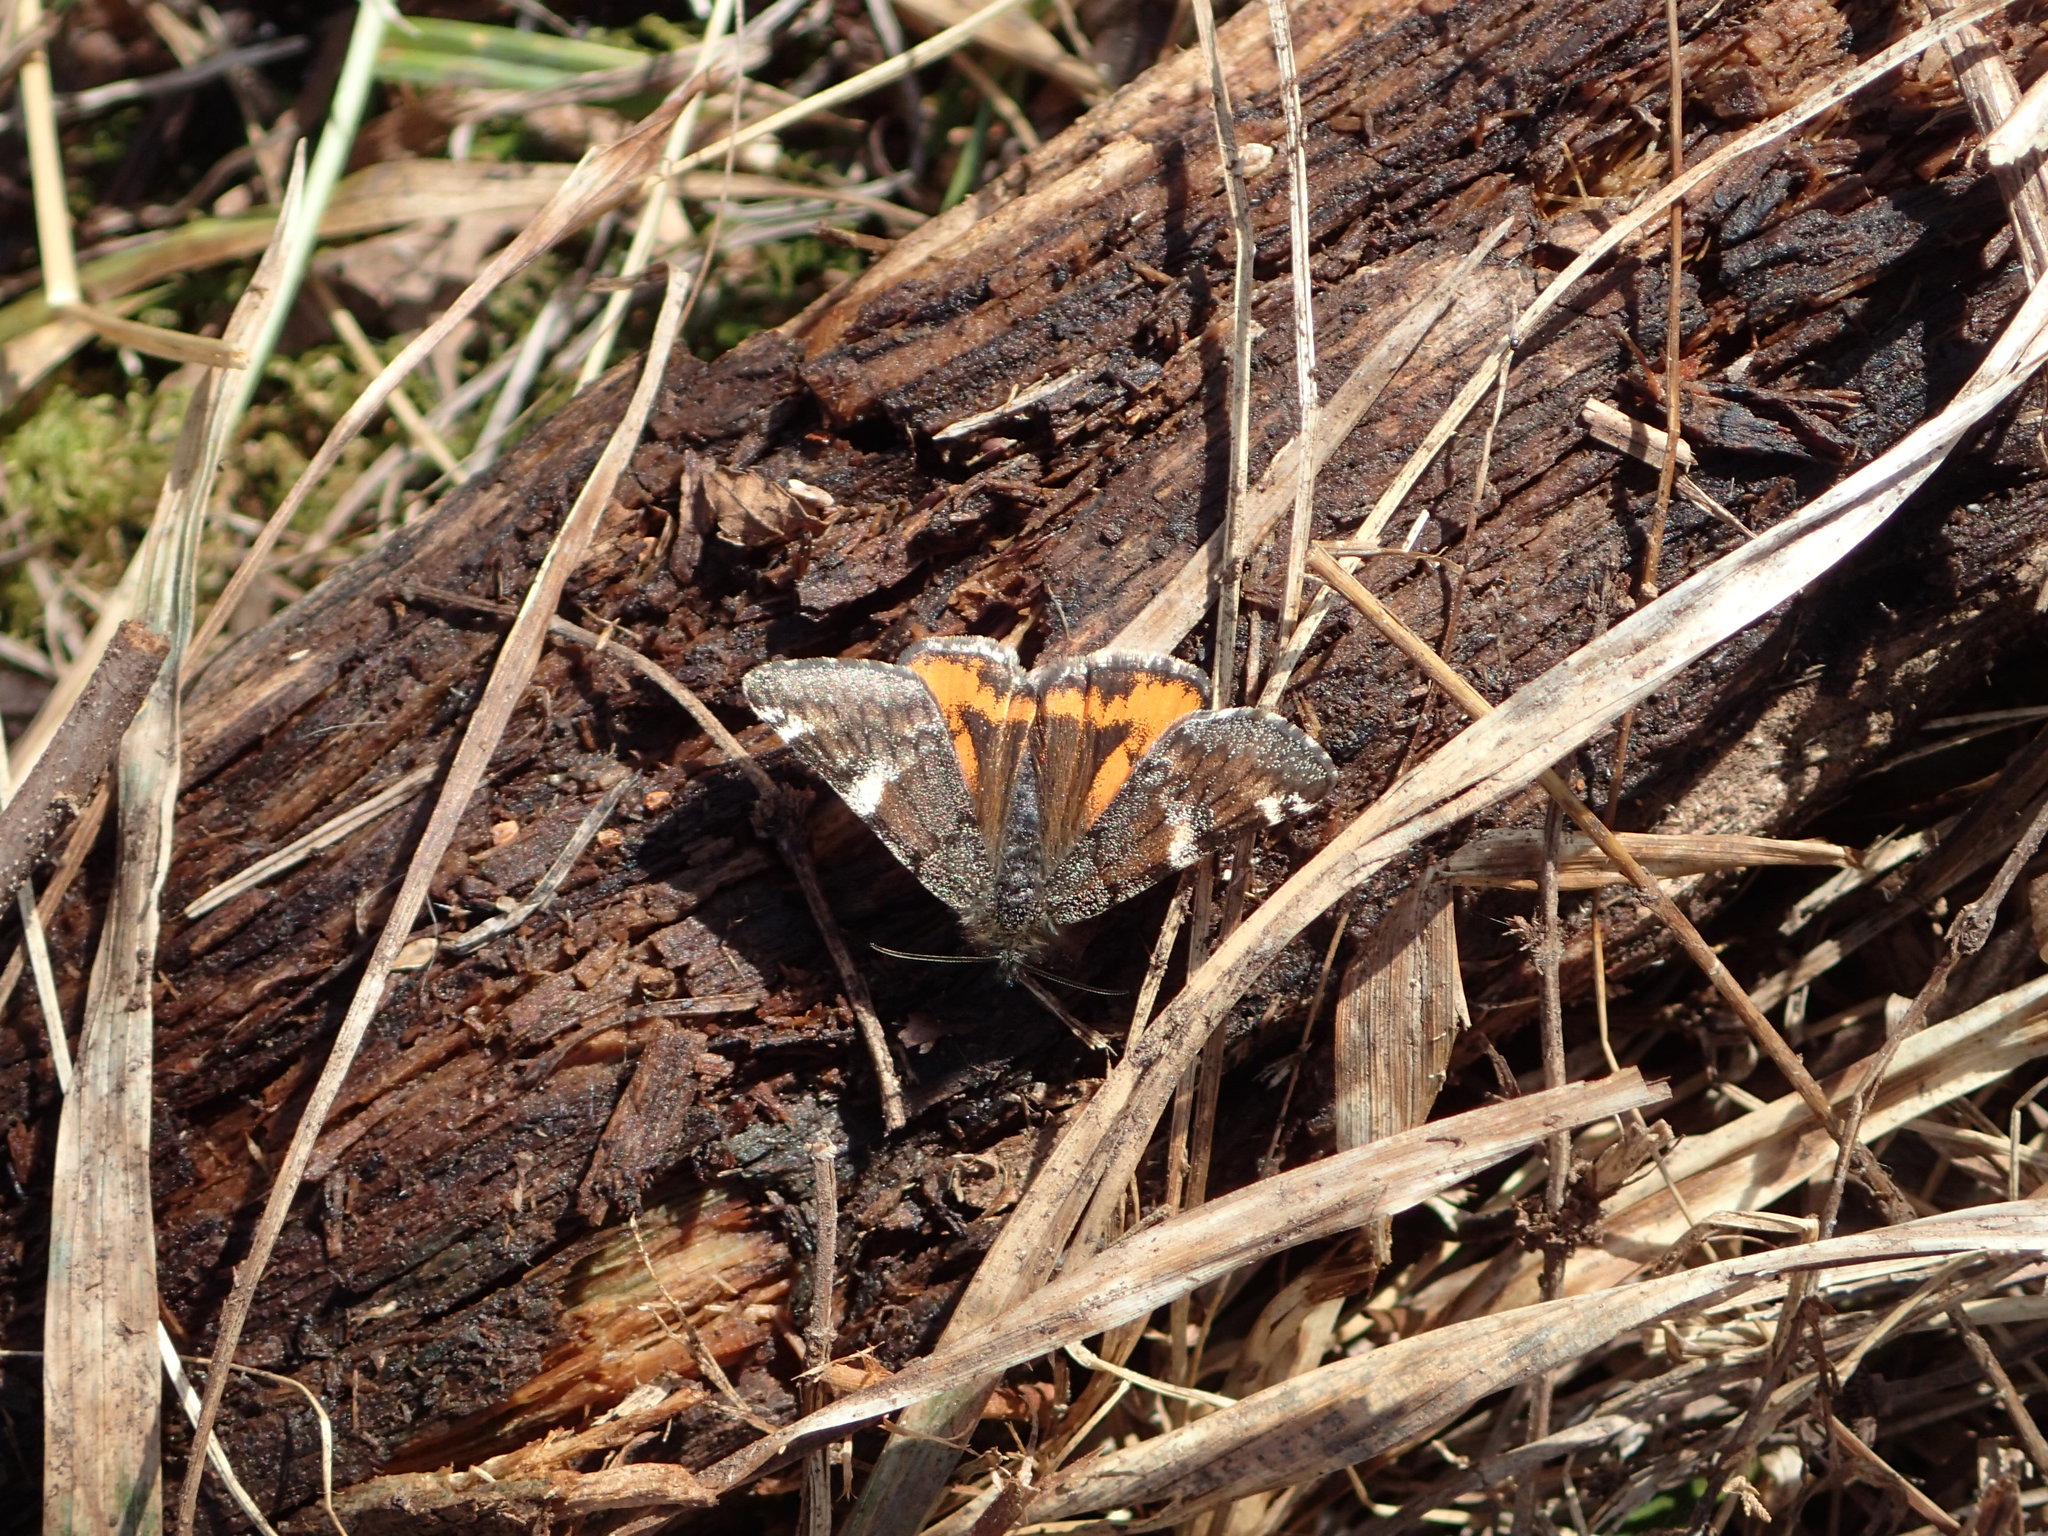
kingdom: Animalia
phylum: Arthropoda
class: Insecta
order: Lepidoptera
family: Geometridae
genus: Archiearis
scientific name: Archiearis infans
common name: First born geometer
